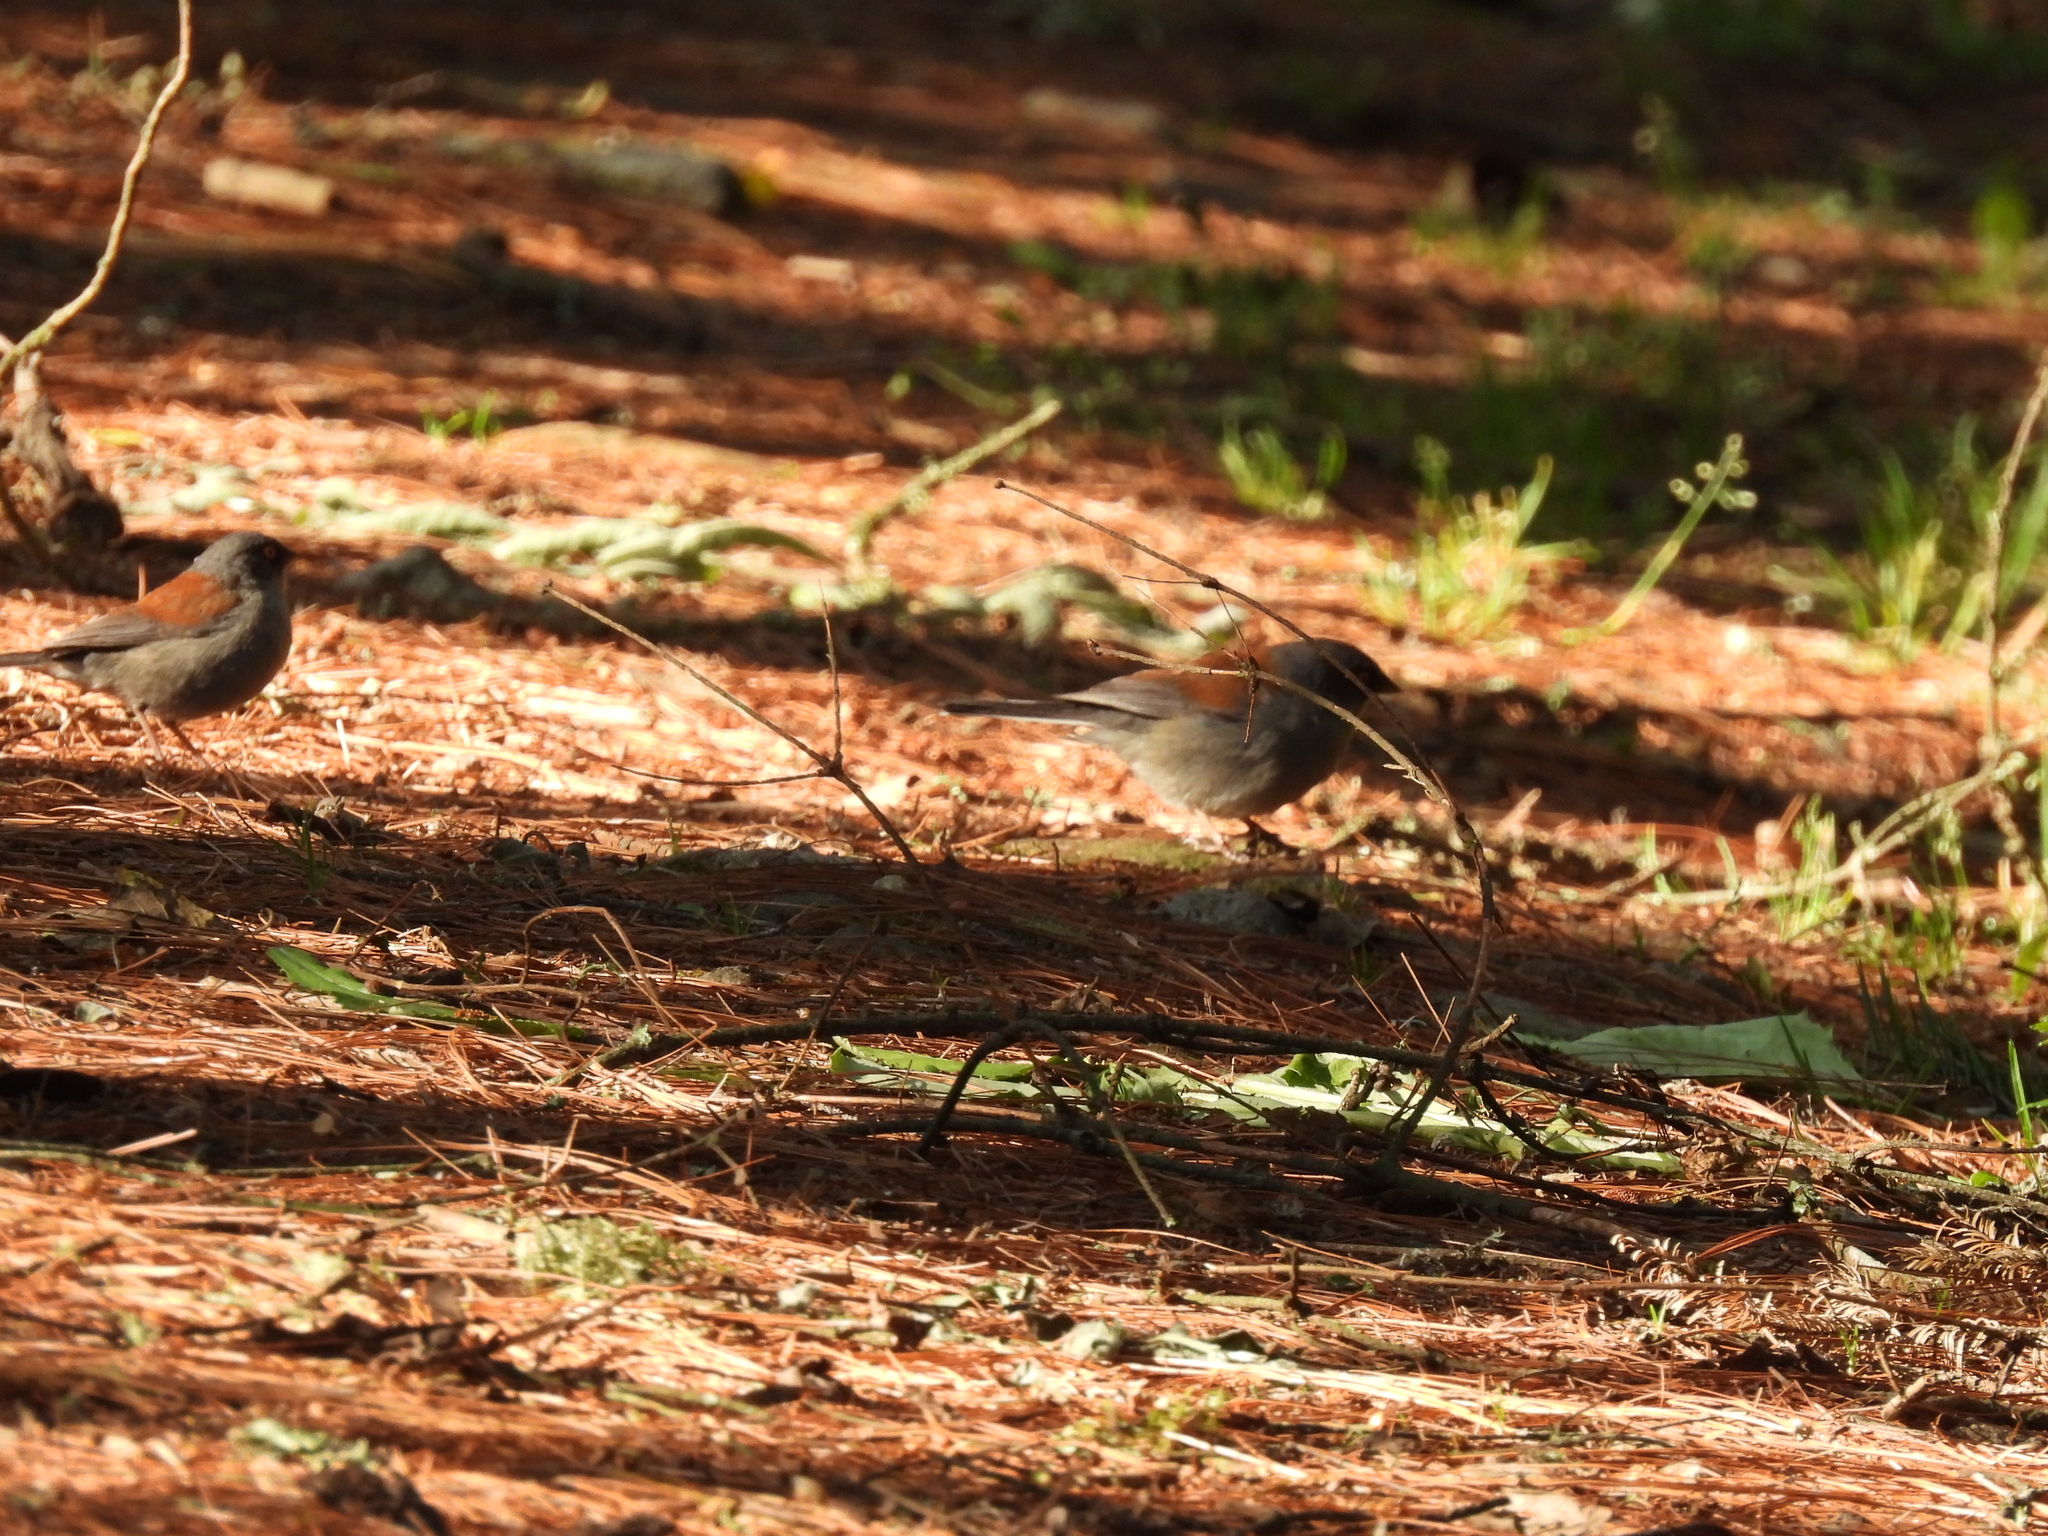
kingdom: Animalia
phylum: Chordata
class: Aves
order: Passeriformes
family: Passerellidae
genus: Junco
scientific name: Junco phaeonotus
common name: Yellow-eyed junco
